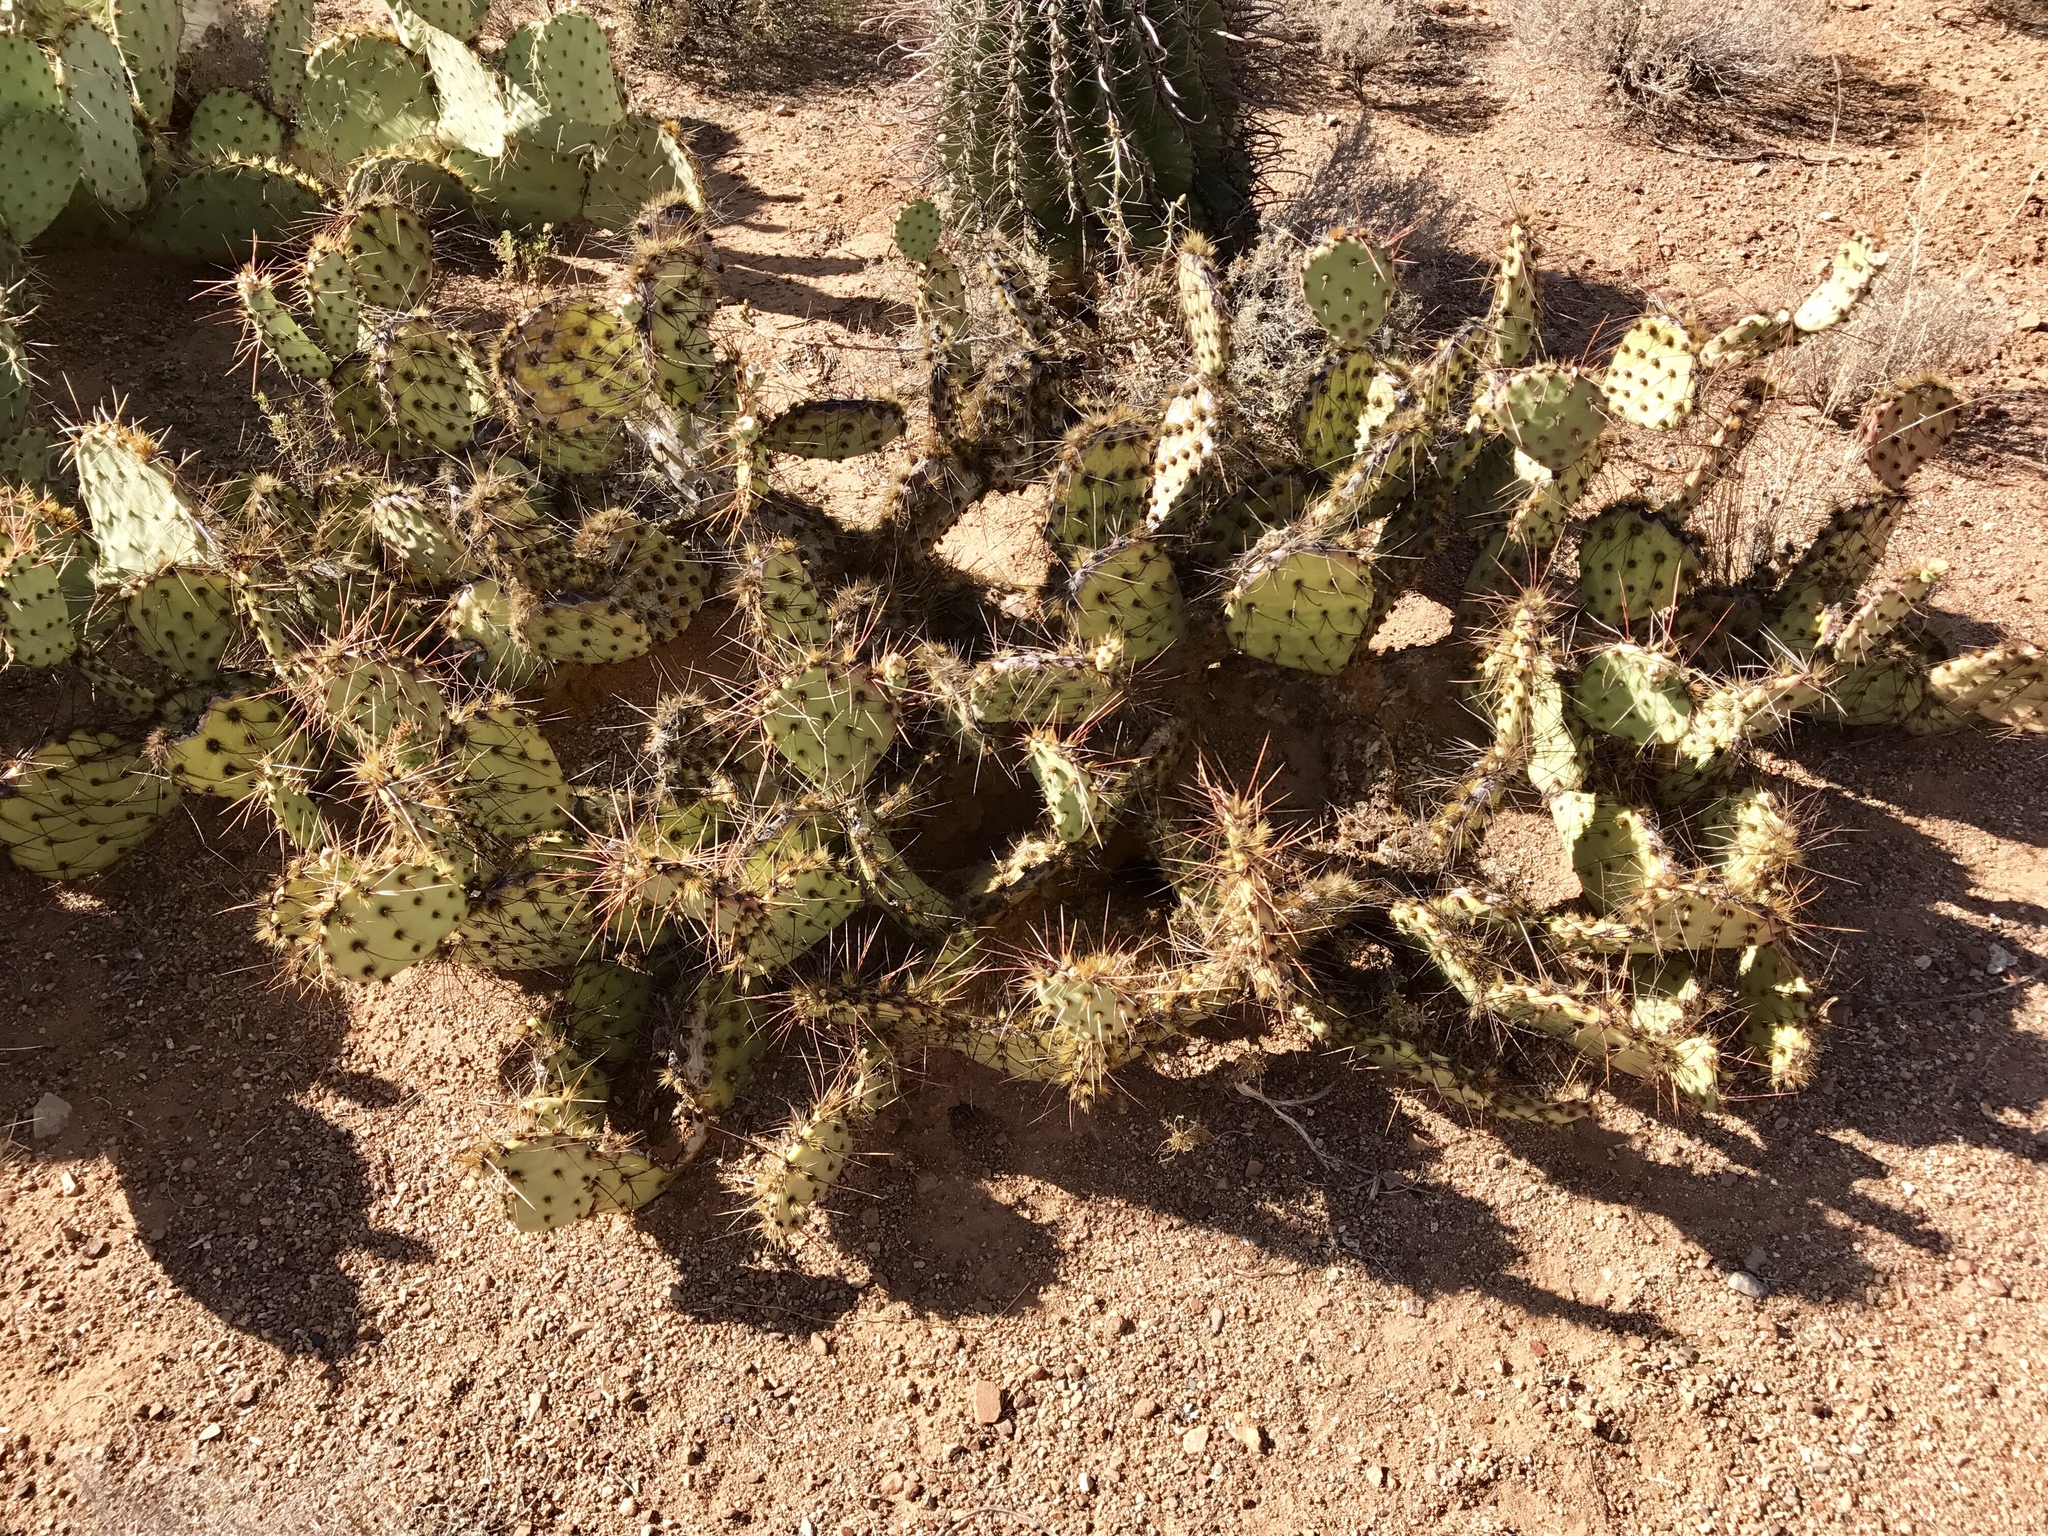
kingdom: Plantae
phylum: Tracheophyta
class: Magnoliopsida
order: Caryophyllales
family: Cactaceae
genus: Opuntia
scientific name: Opuntia phaeacantha
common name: New mexico prickly-pear
